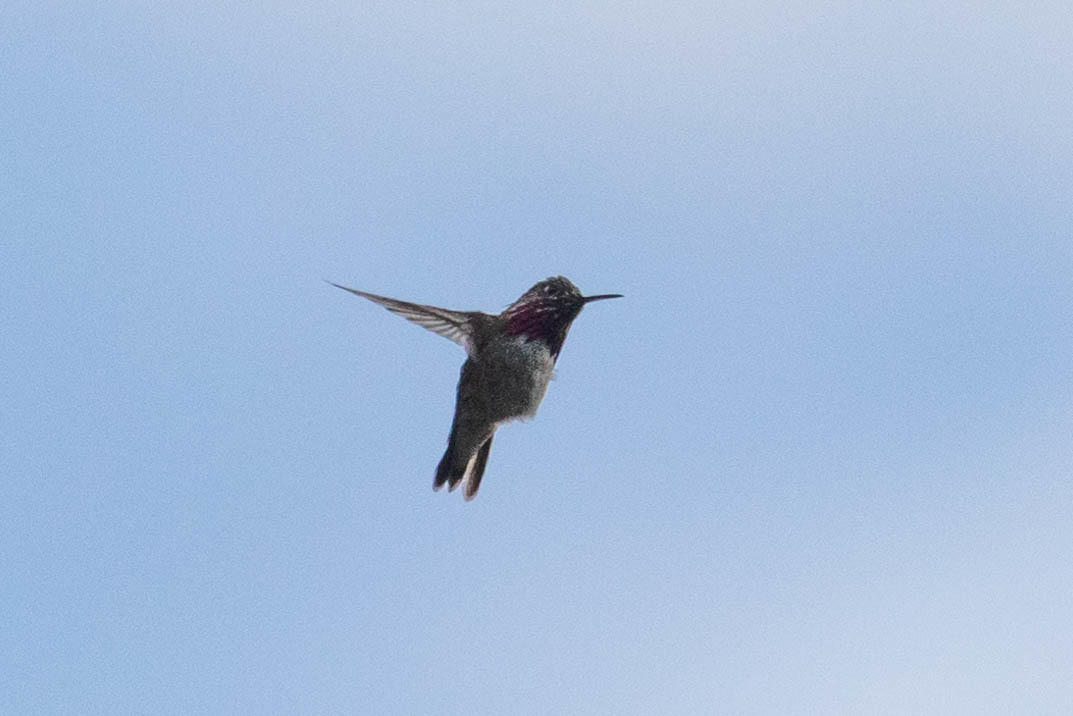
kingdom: Animalia
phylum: Chordata
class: Aves
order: Apodiformes
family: Trochilidae
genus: Selasphorus
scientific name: Selasphorus calliope
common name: Calliope hummingbird
